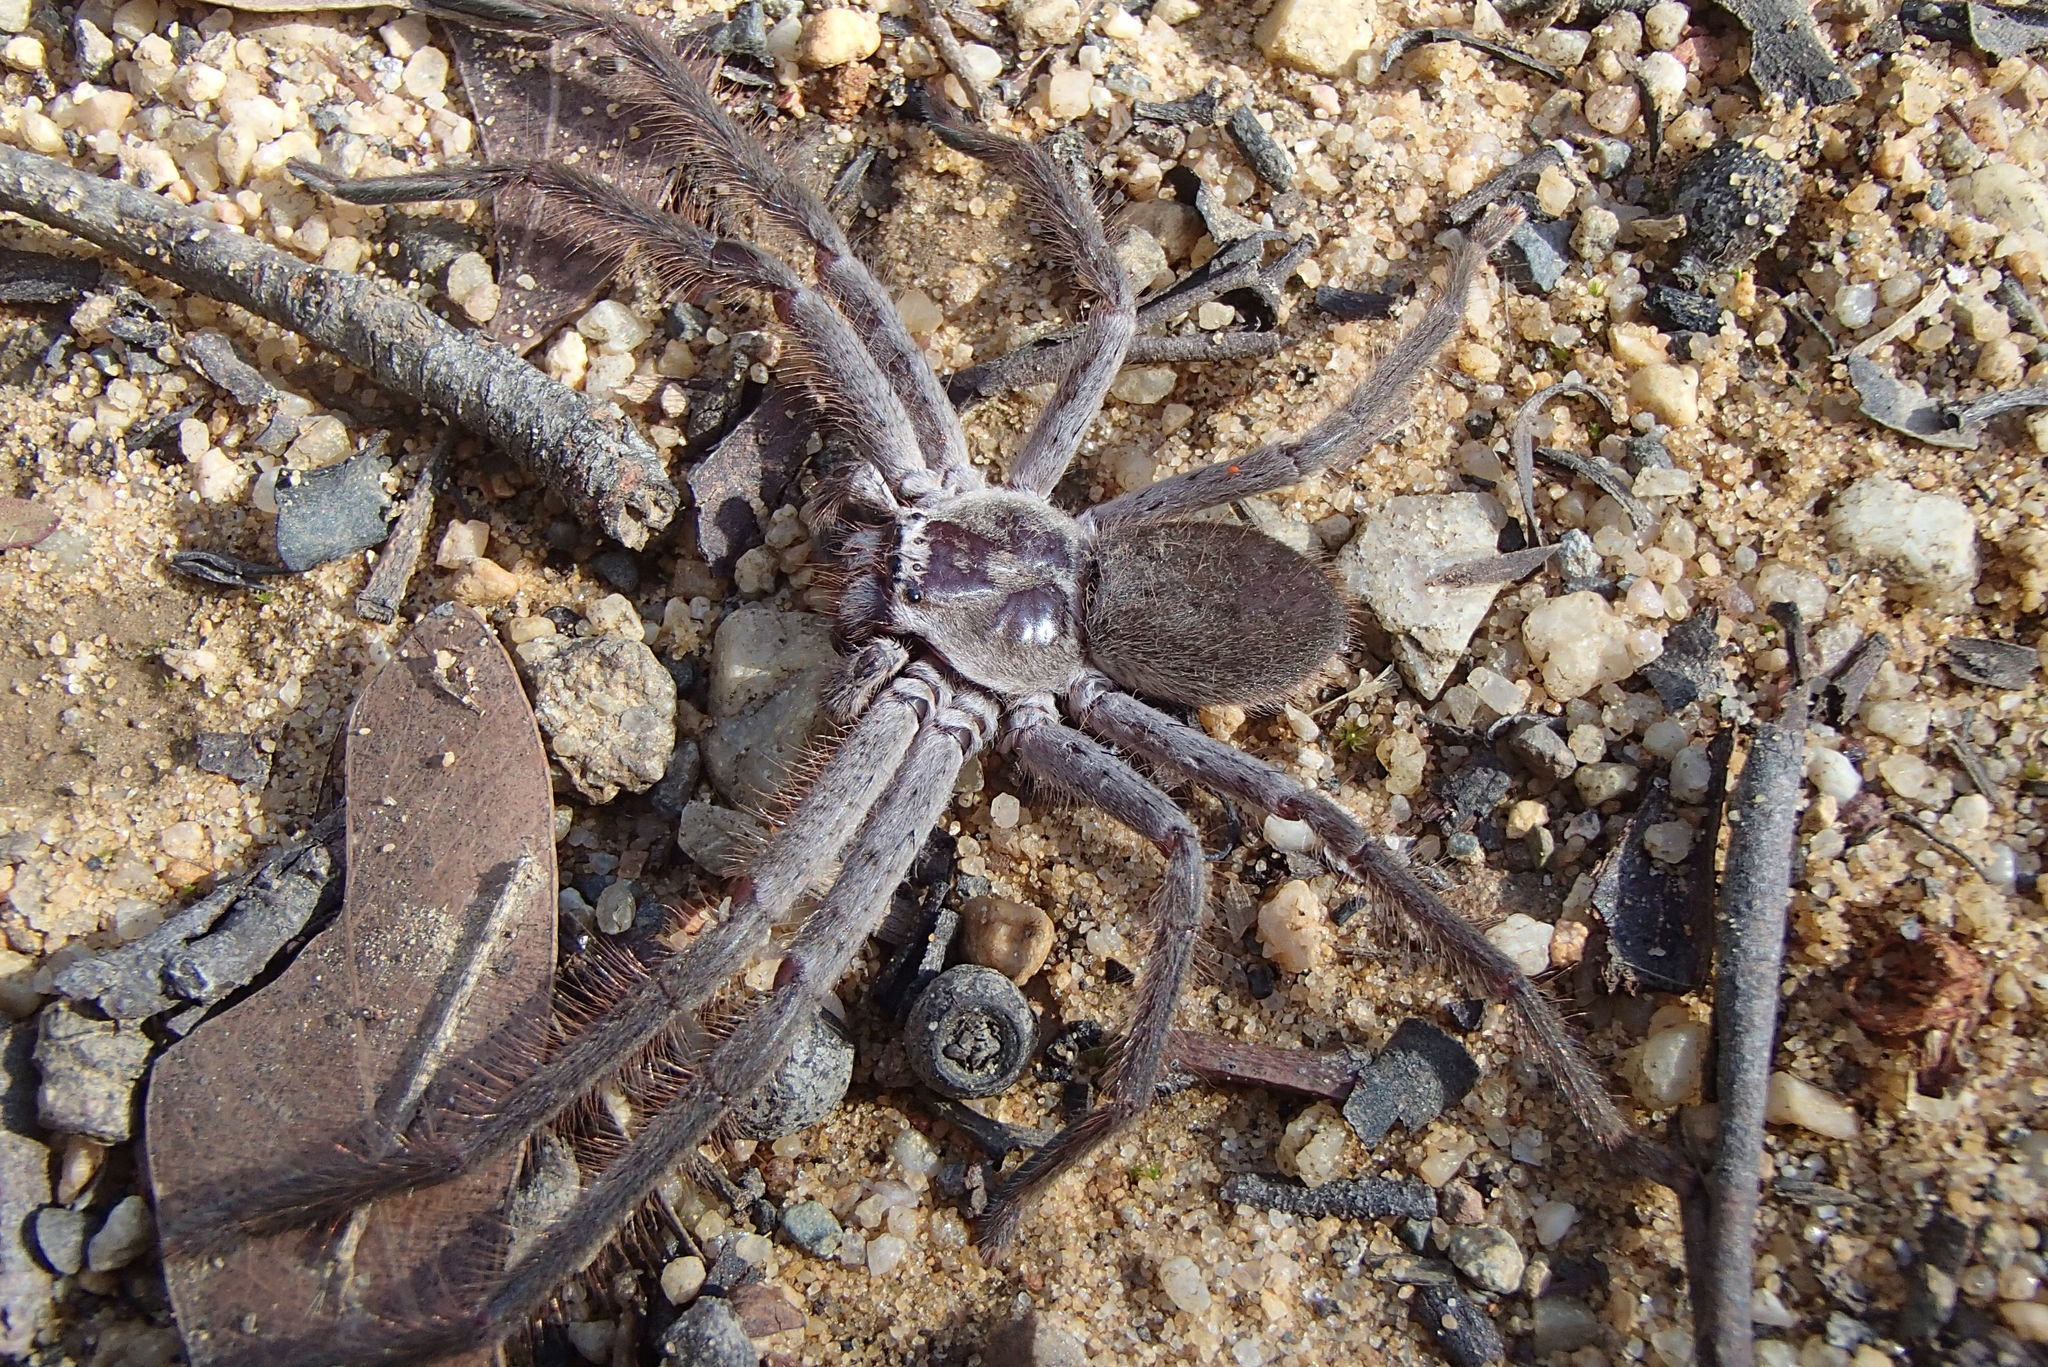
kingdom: Animalia
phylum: Arthropoda
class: Arachnida
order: Araneae
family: Sparassidae
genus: Isopeda
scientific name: Isopeda villosa
